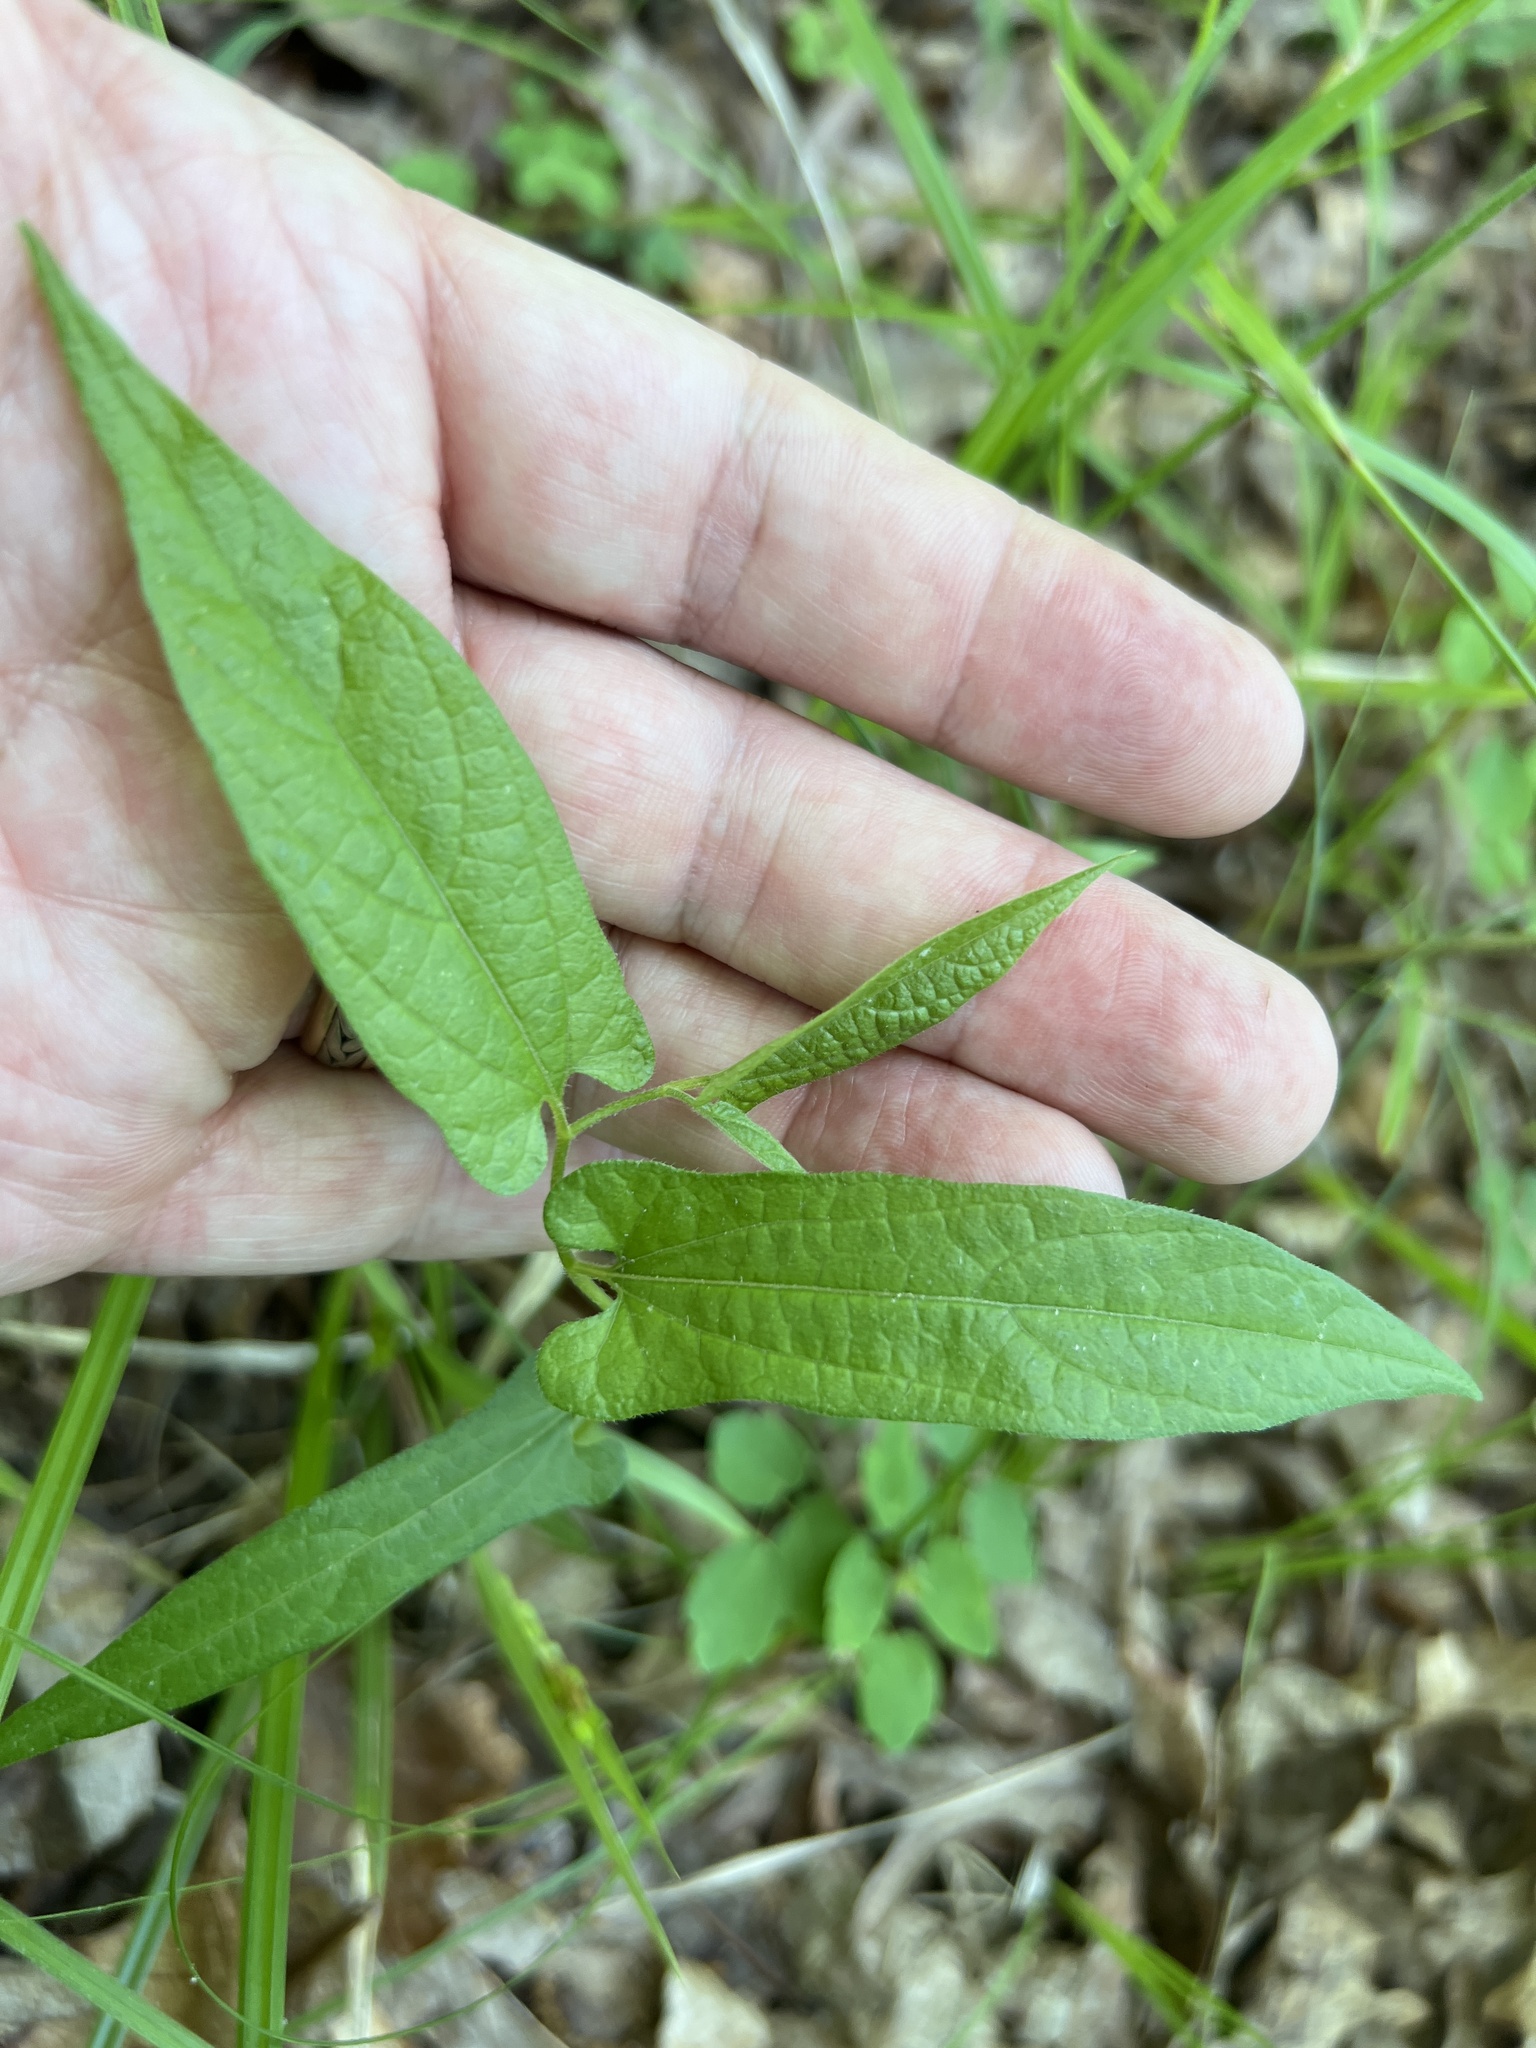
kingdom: Plantae
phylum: Tracheophyta
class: Magnoliopsida
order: Piperales
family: Aristolochiaceae
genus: Endodeca
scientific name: Endodeca serpentaria
